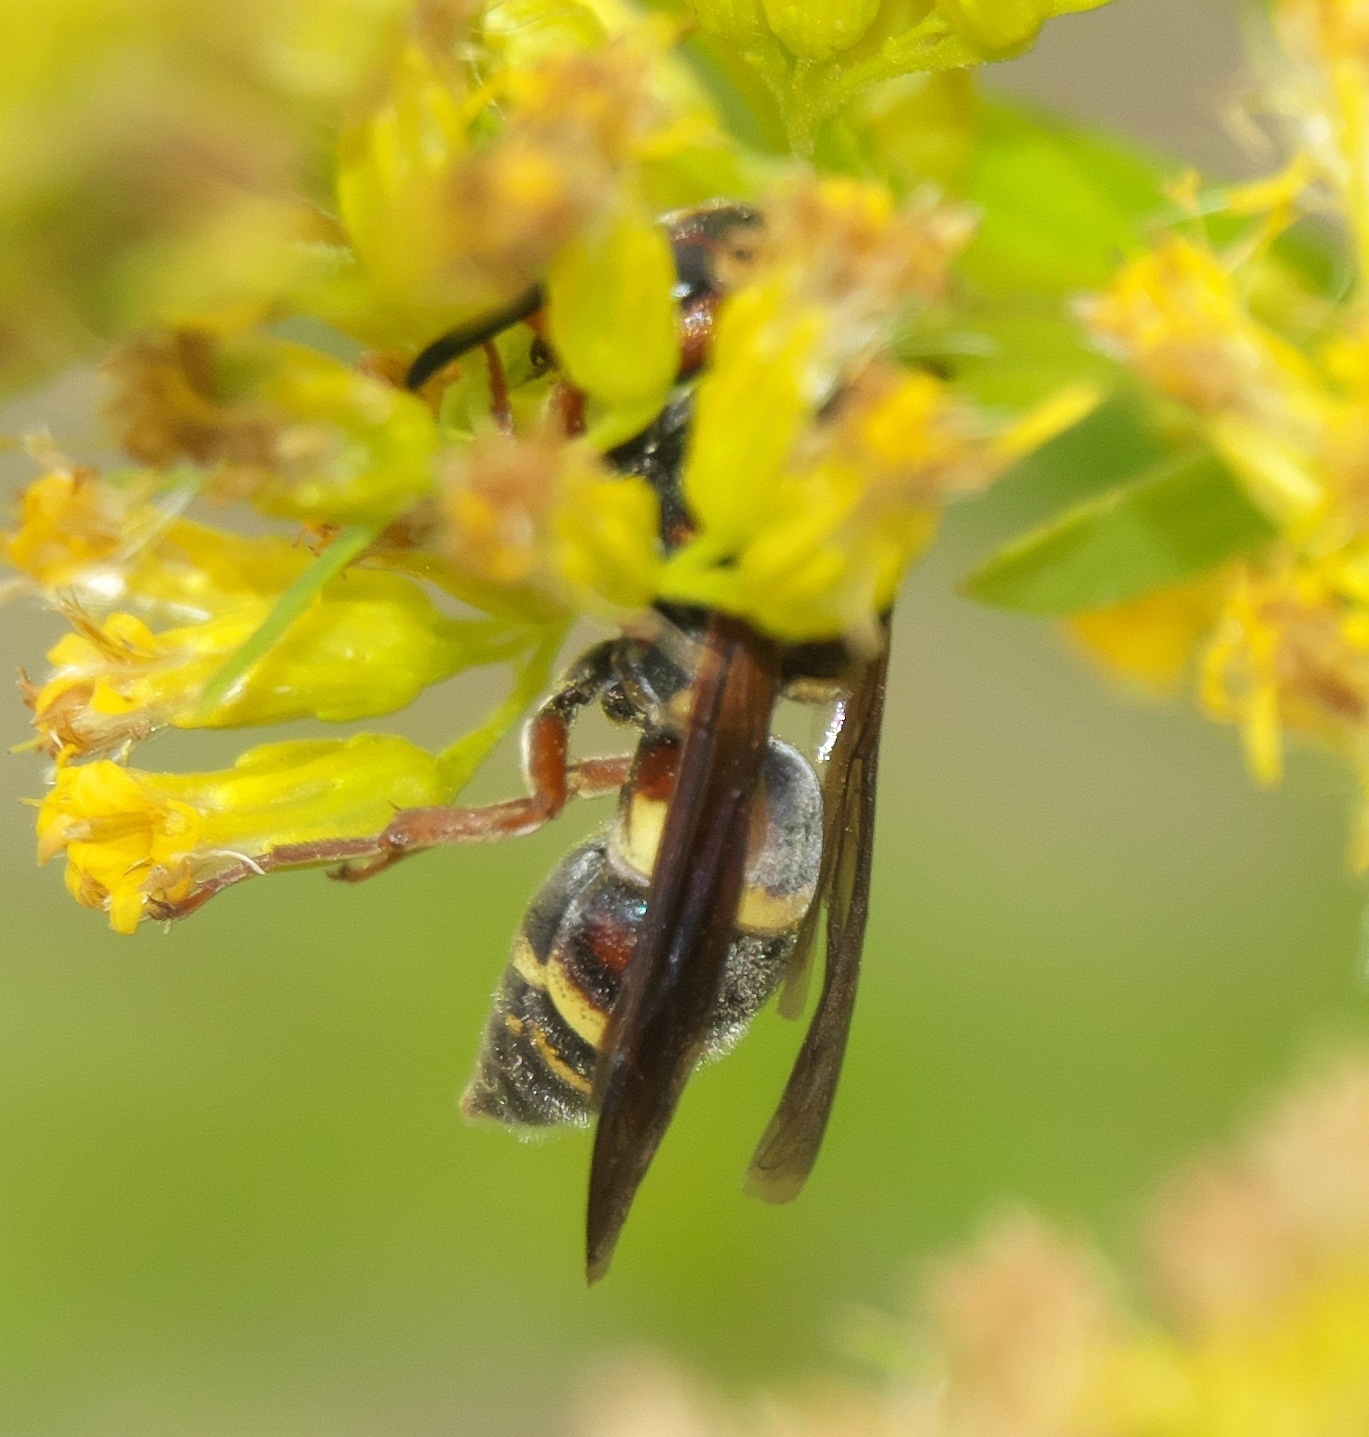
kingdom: Animalia
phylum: Arthropoda
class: Insecta
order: Hymenoptera
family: Eumenidae
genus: Euodynerus
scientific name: Euodynerus annulatus
